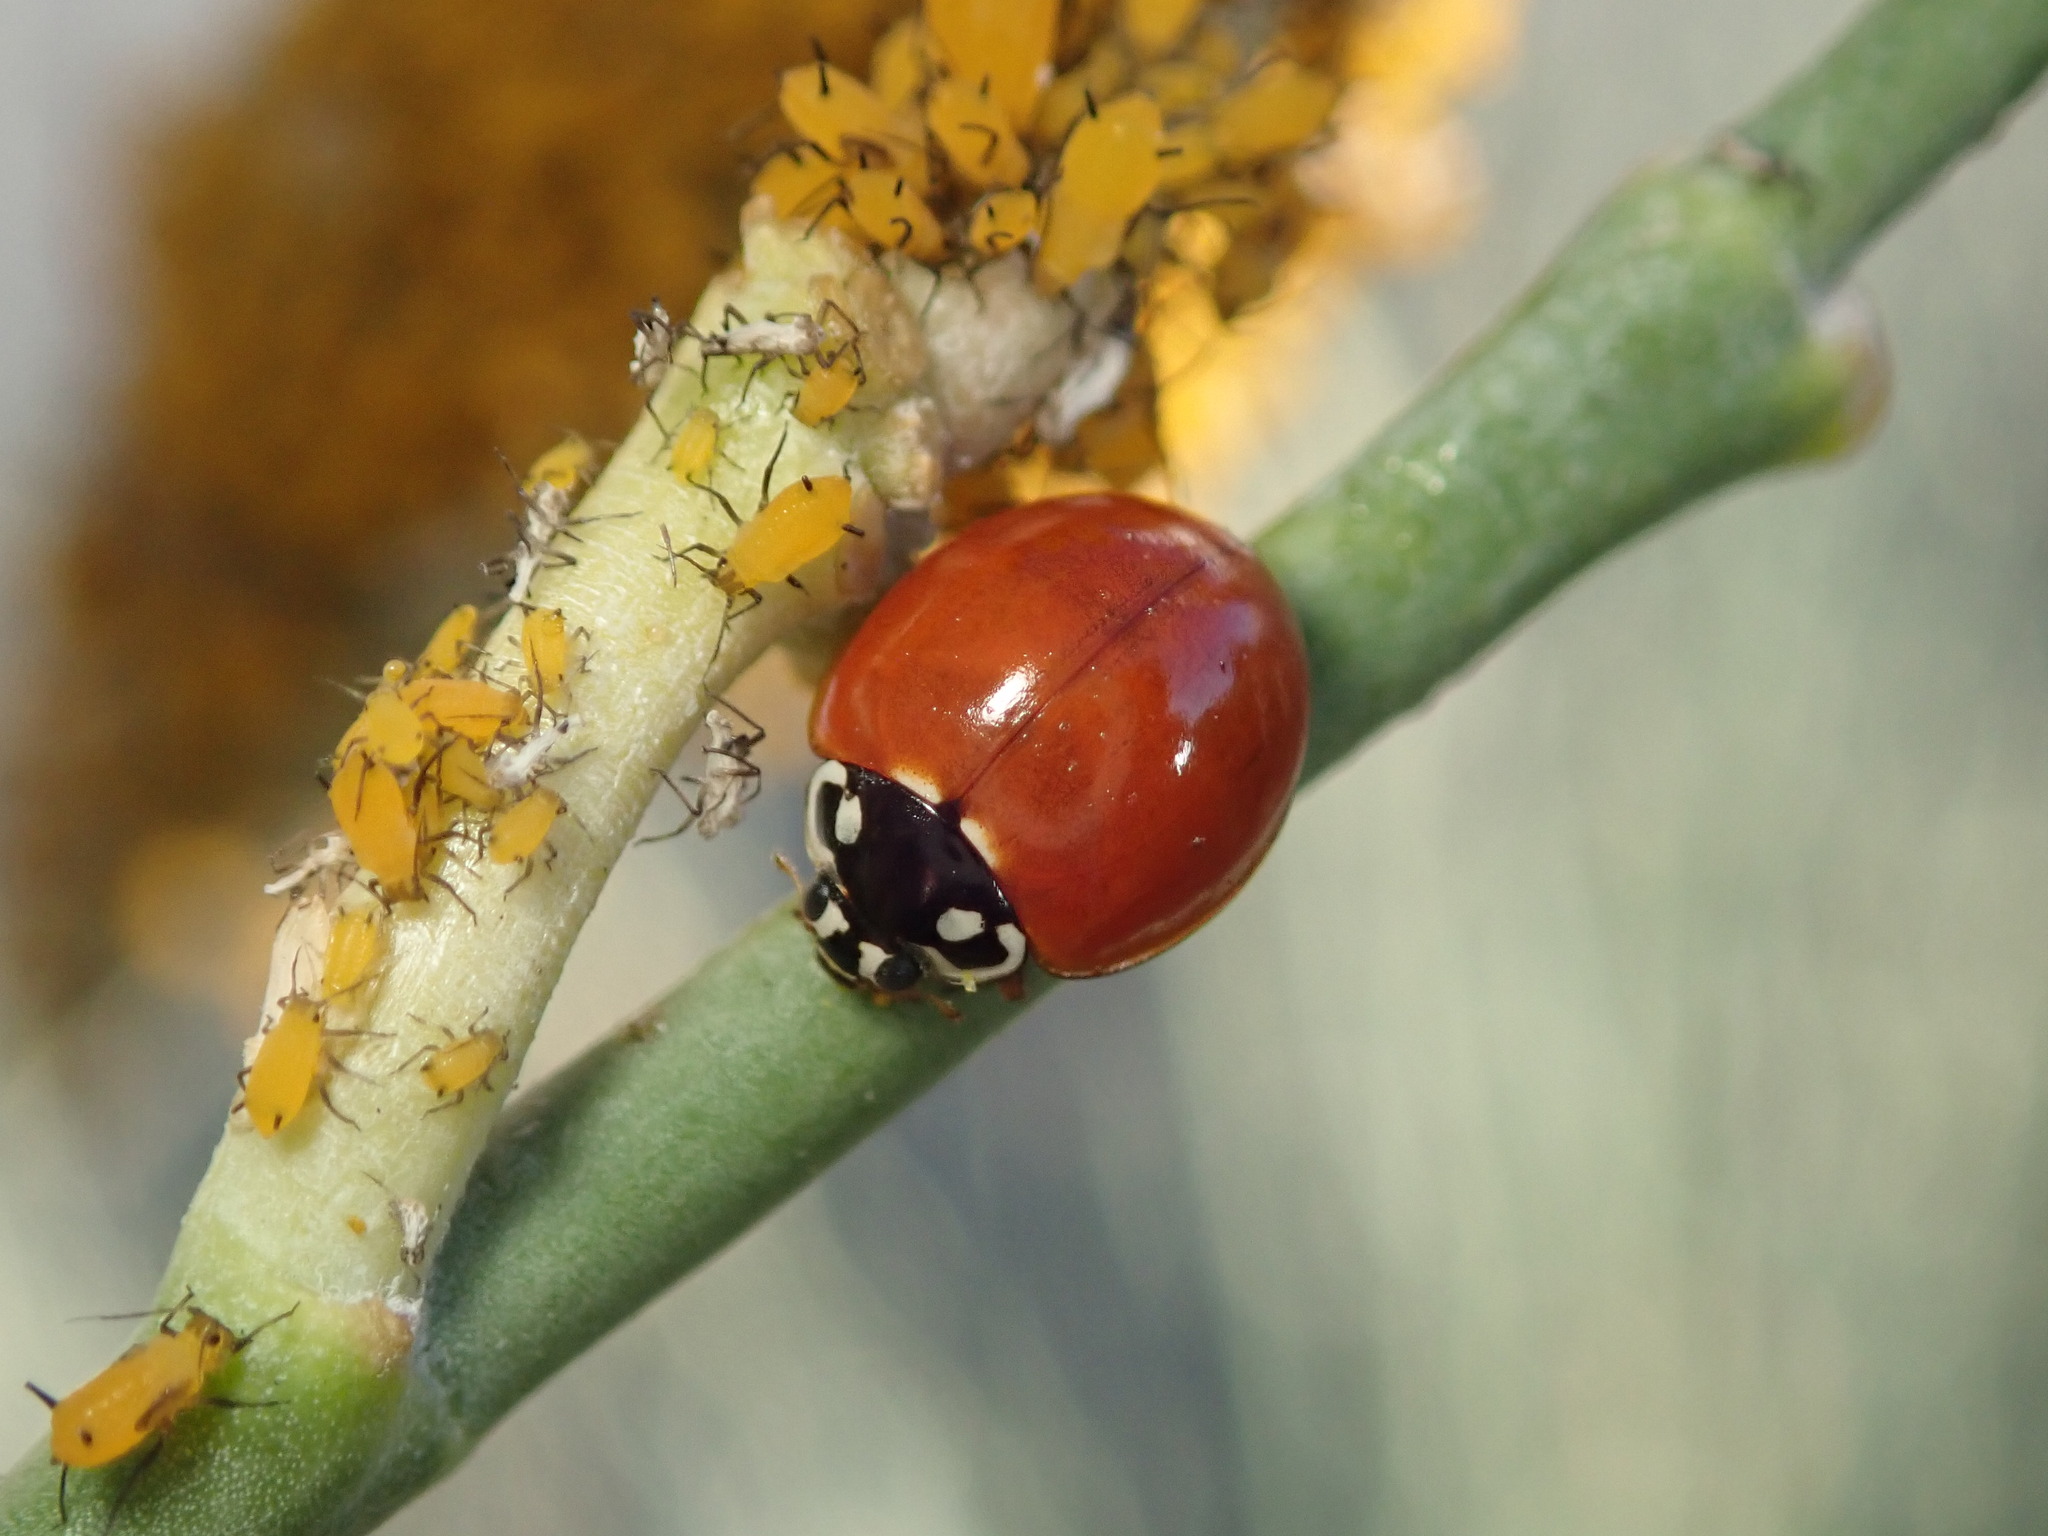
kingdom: Animalia
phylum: Arthropoda
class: Insecta
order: Coleoptera
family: Coccinellidae
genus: Cycloneda
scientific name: Cycloneda sanguinea
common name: Ladybird beetle
